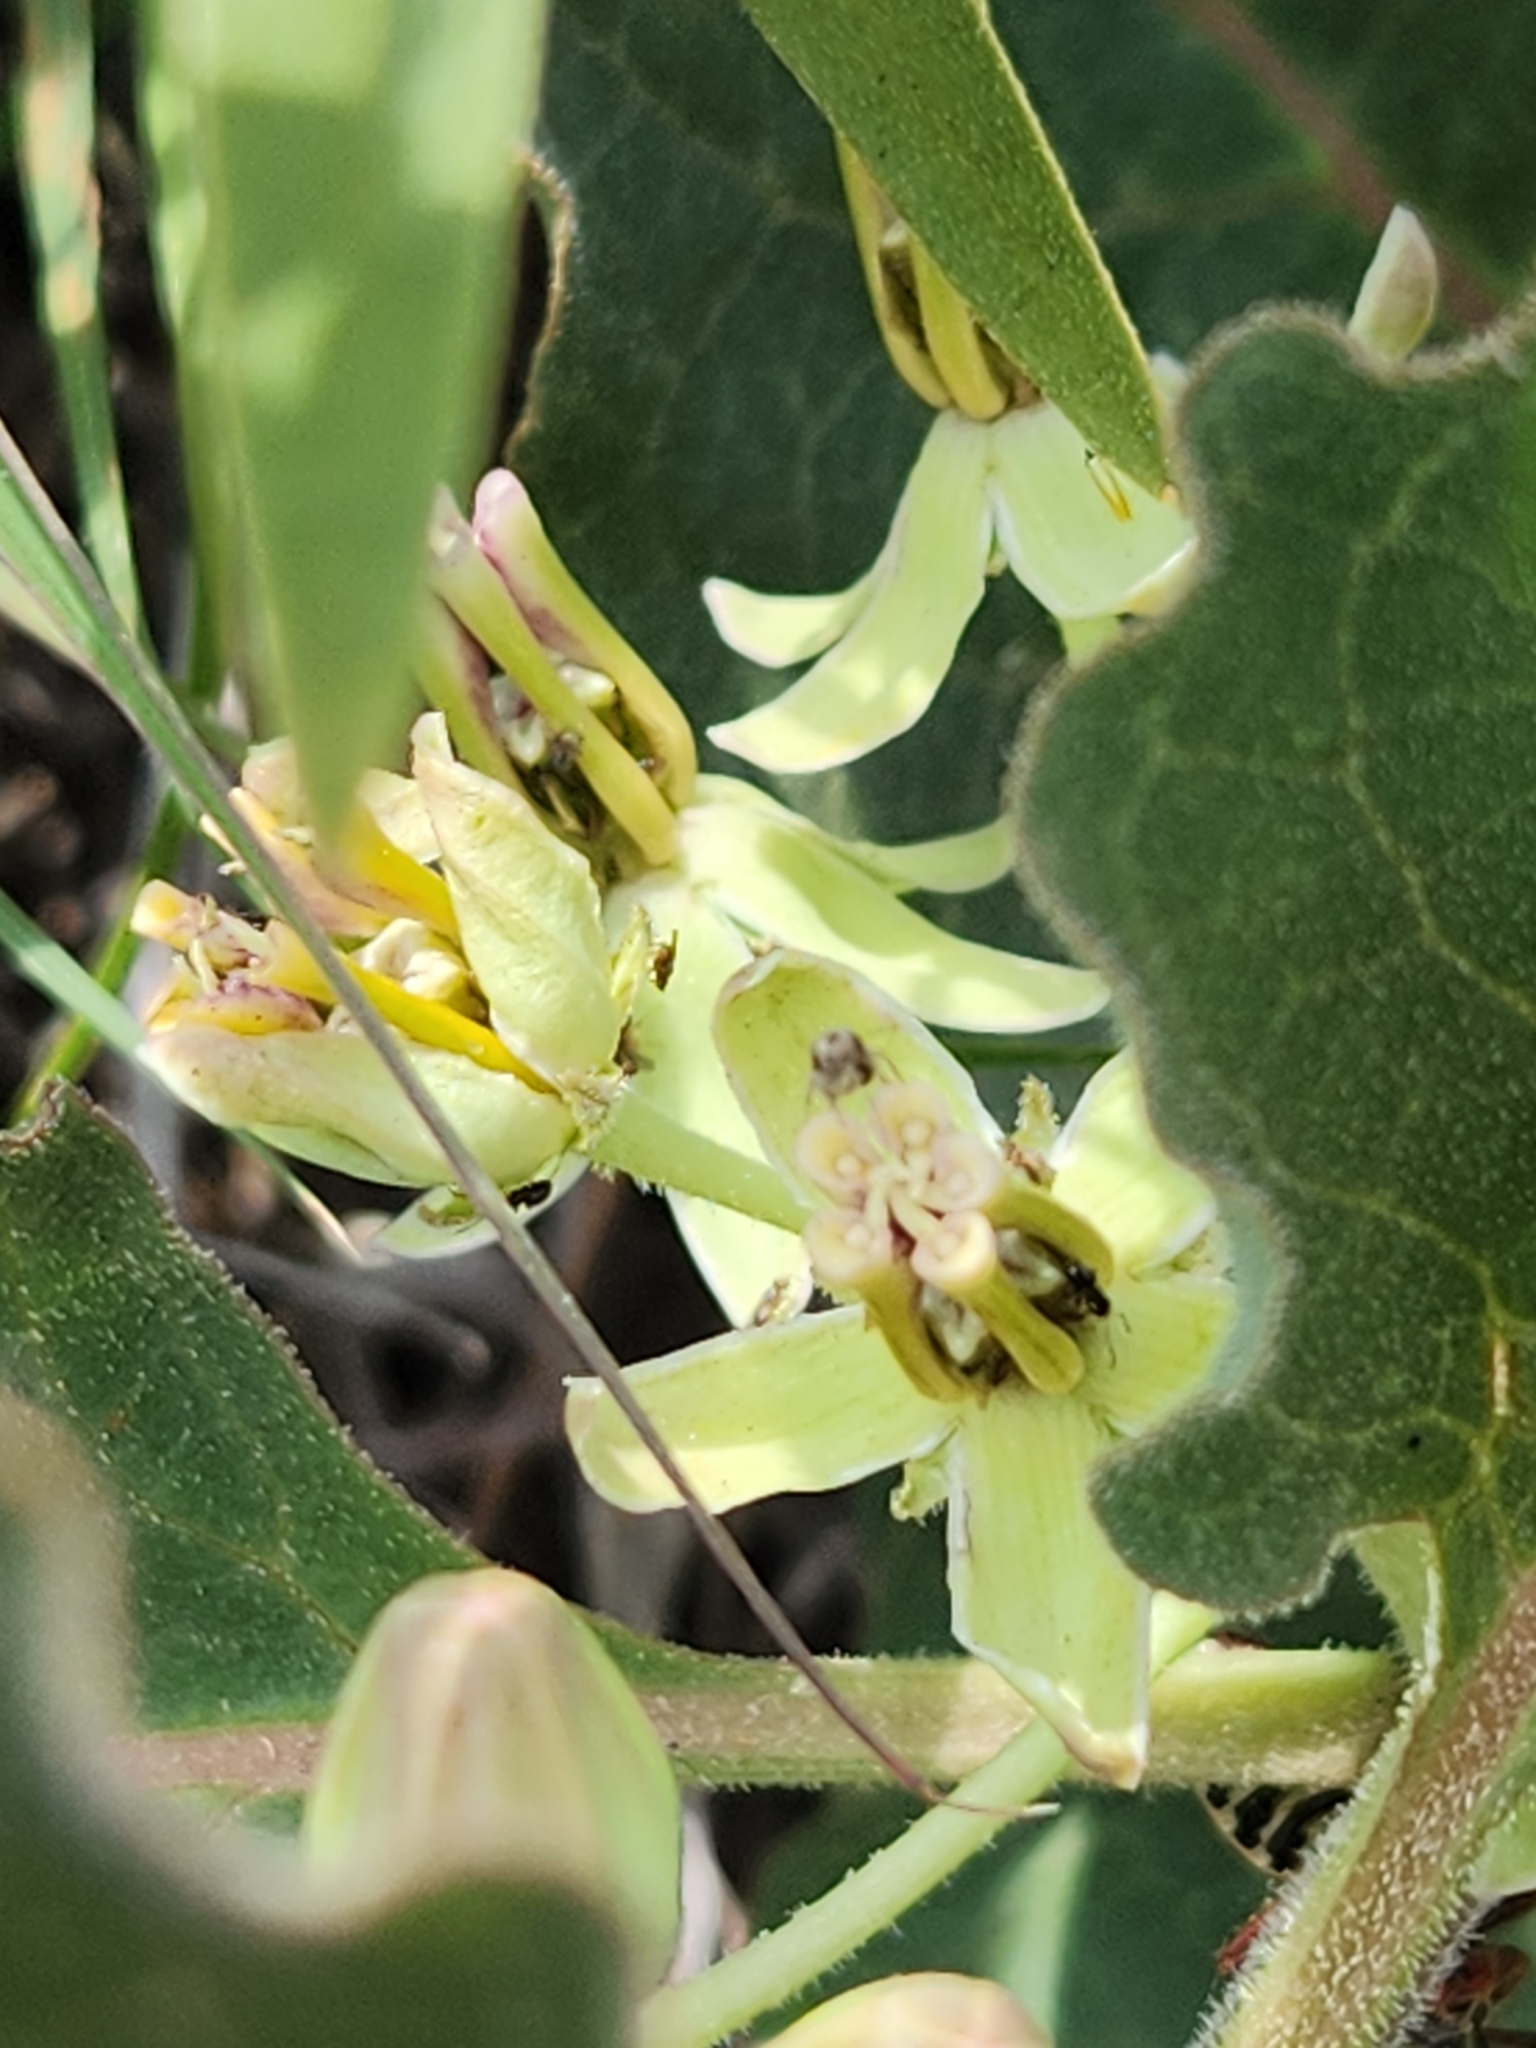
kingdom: Plantae
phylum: Tracheophyta
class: Magnoliopsida
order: Gentianales
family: Apocynaceae
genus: Asclepias
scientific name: Asclepias oenotheroides
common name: Zizotes milkweed
